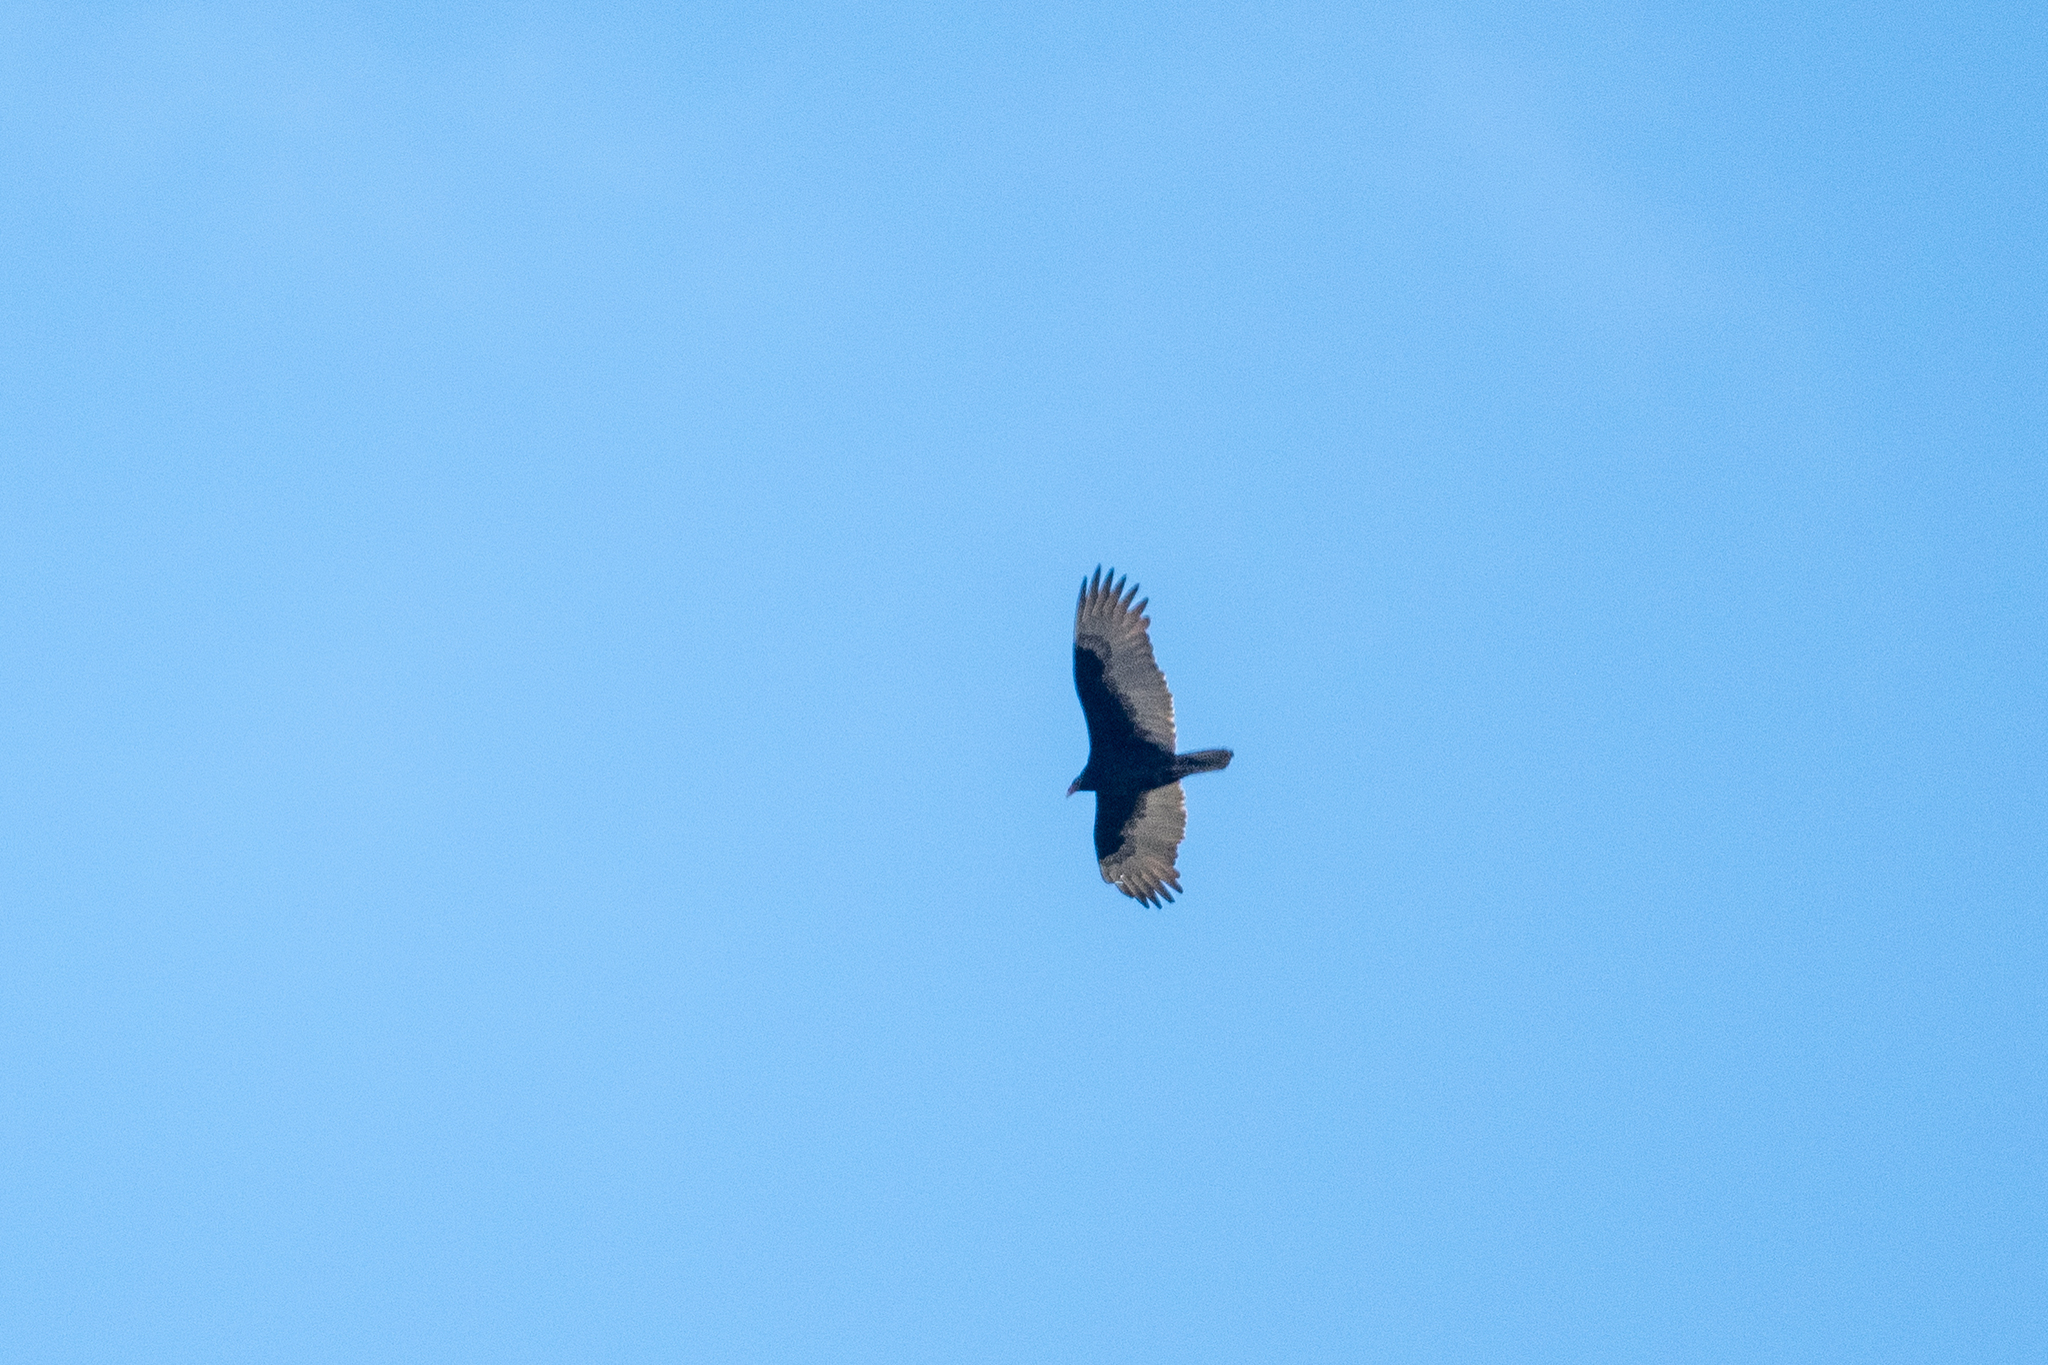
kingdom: Animalia
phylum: Chordata
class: Aves
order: Accipitriformes
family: Cathartidae
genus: Cathartes
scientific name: Cathartes aura
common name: Turkey vulture
